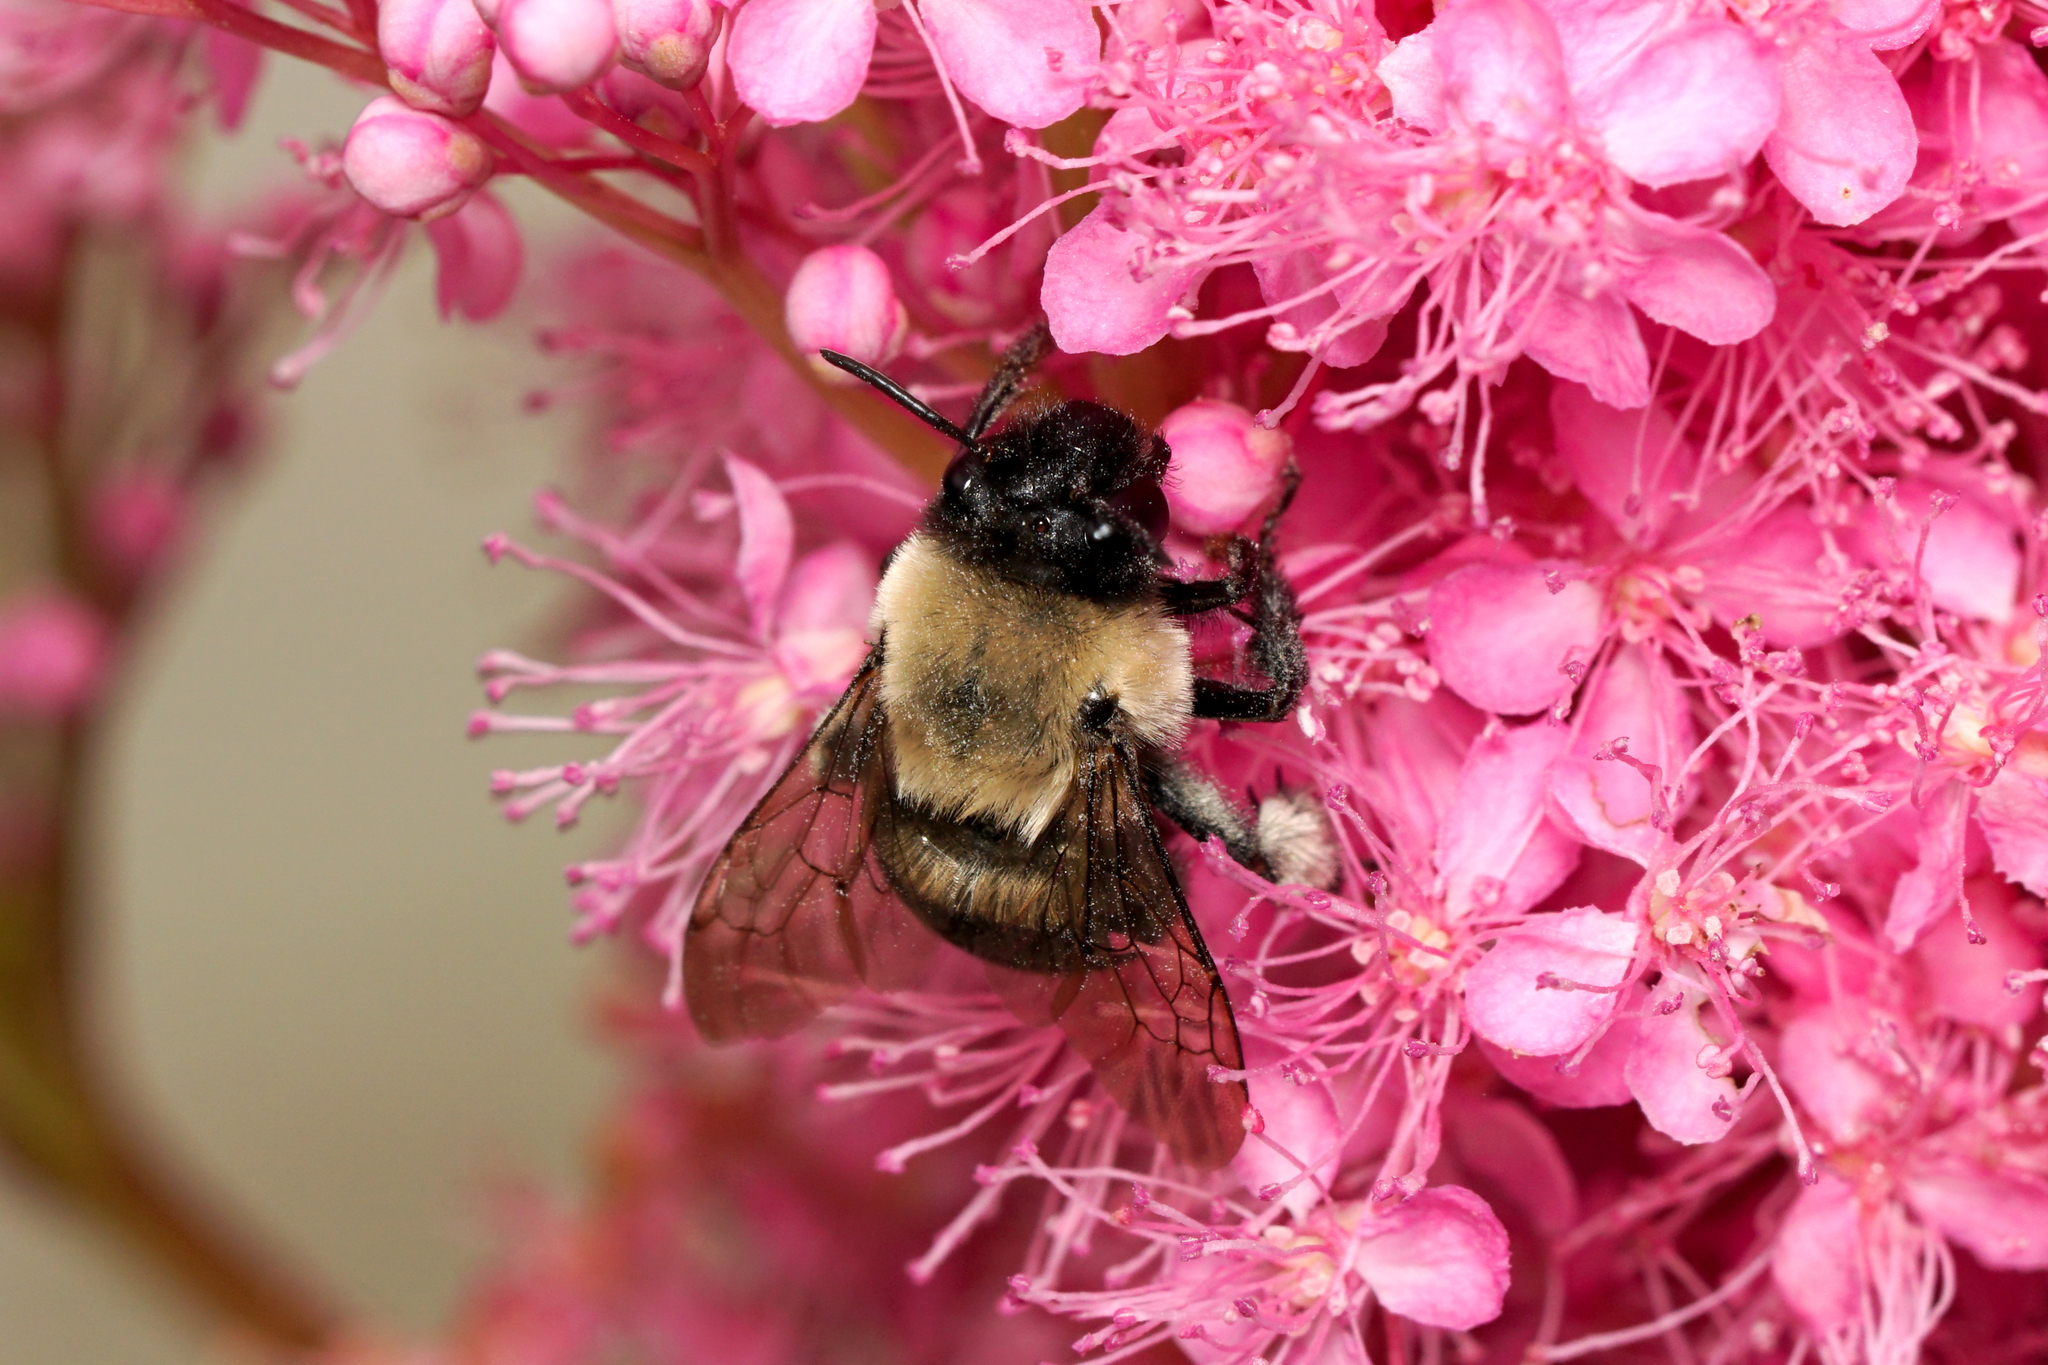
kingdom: Animalia
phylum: Arthropoda
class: Insecta
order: Hymenoptera
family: Apidae
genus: Anthophora
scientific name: Anthophora abrupta
